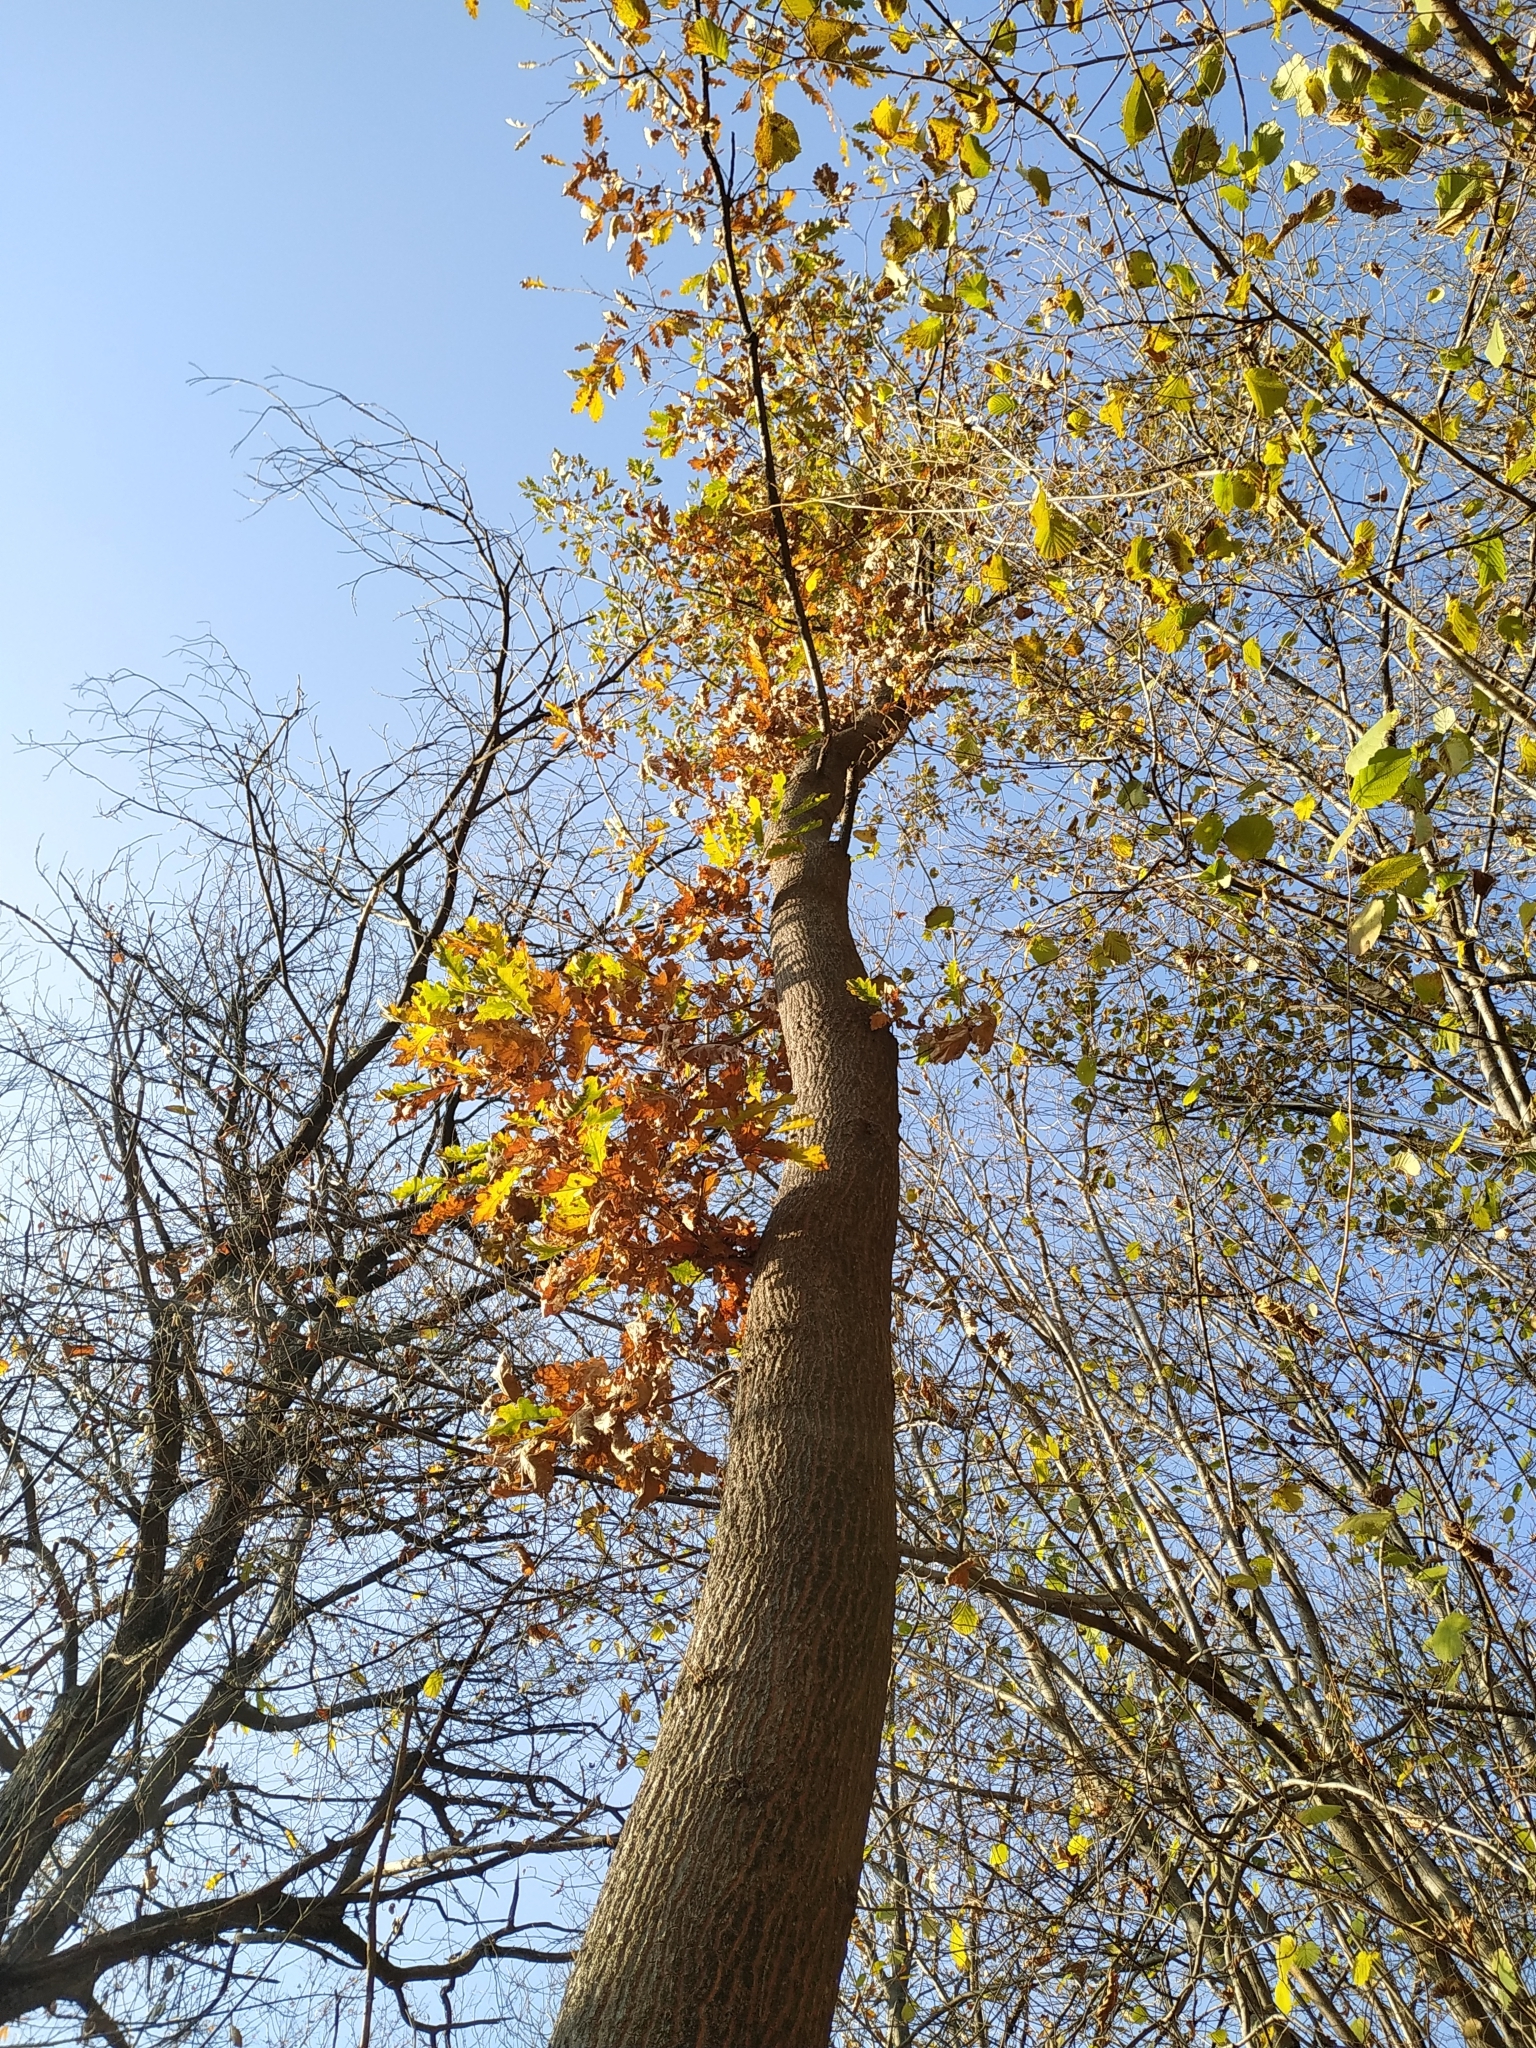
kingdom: Plantae
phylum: Tracheophyta
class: Magnoliopsida
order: Fagales
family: Fagaceae
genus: Quercus
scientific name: Quercus cerris
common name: Turkey oak
